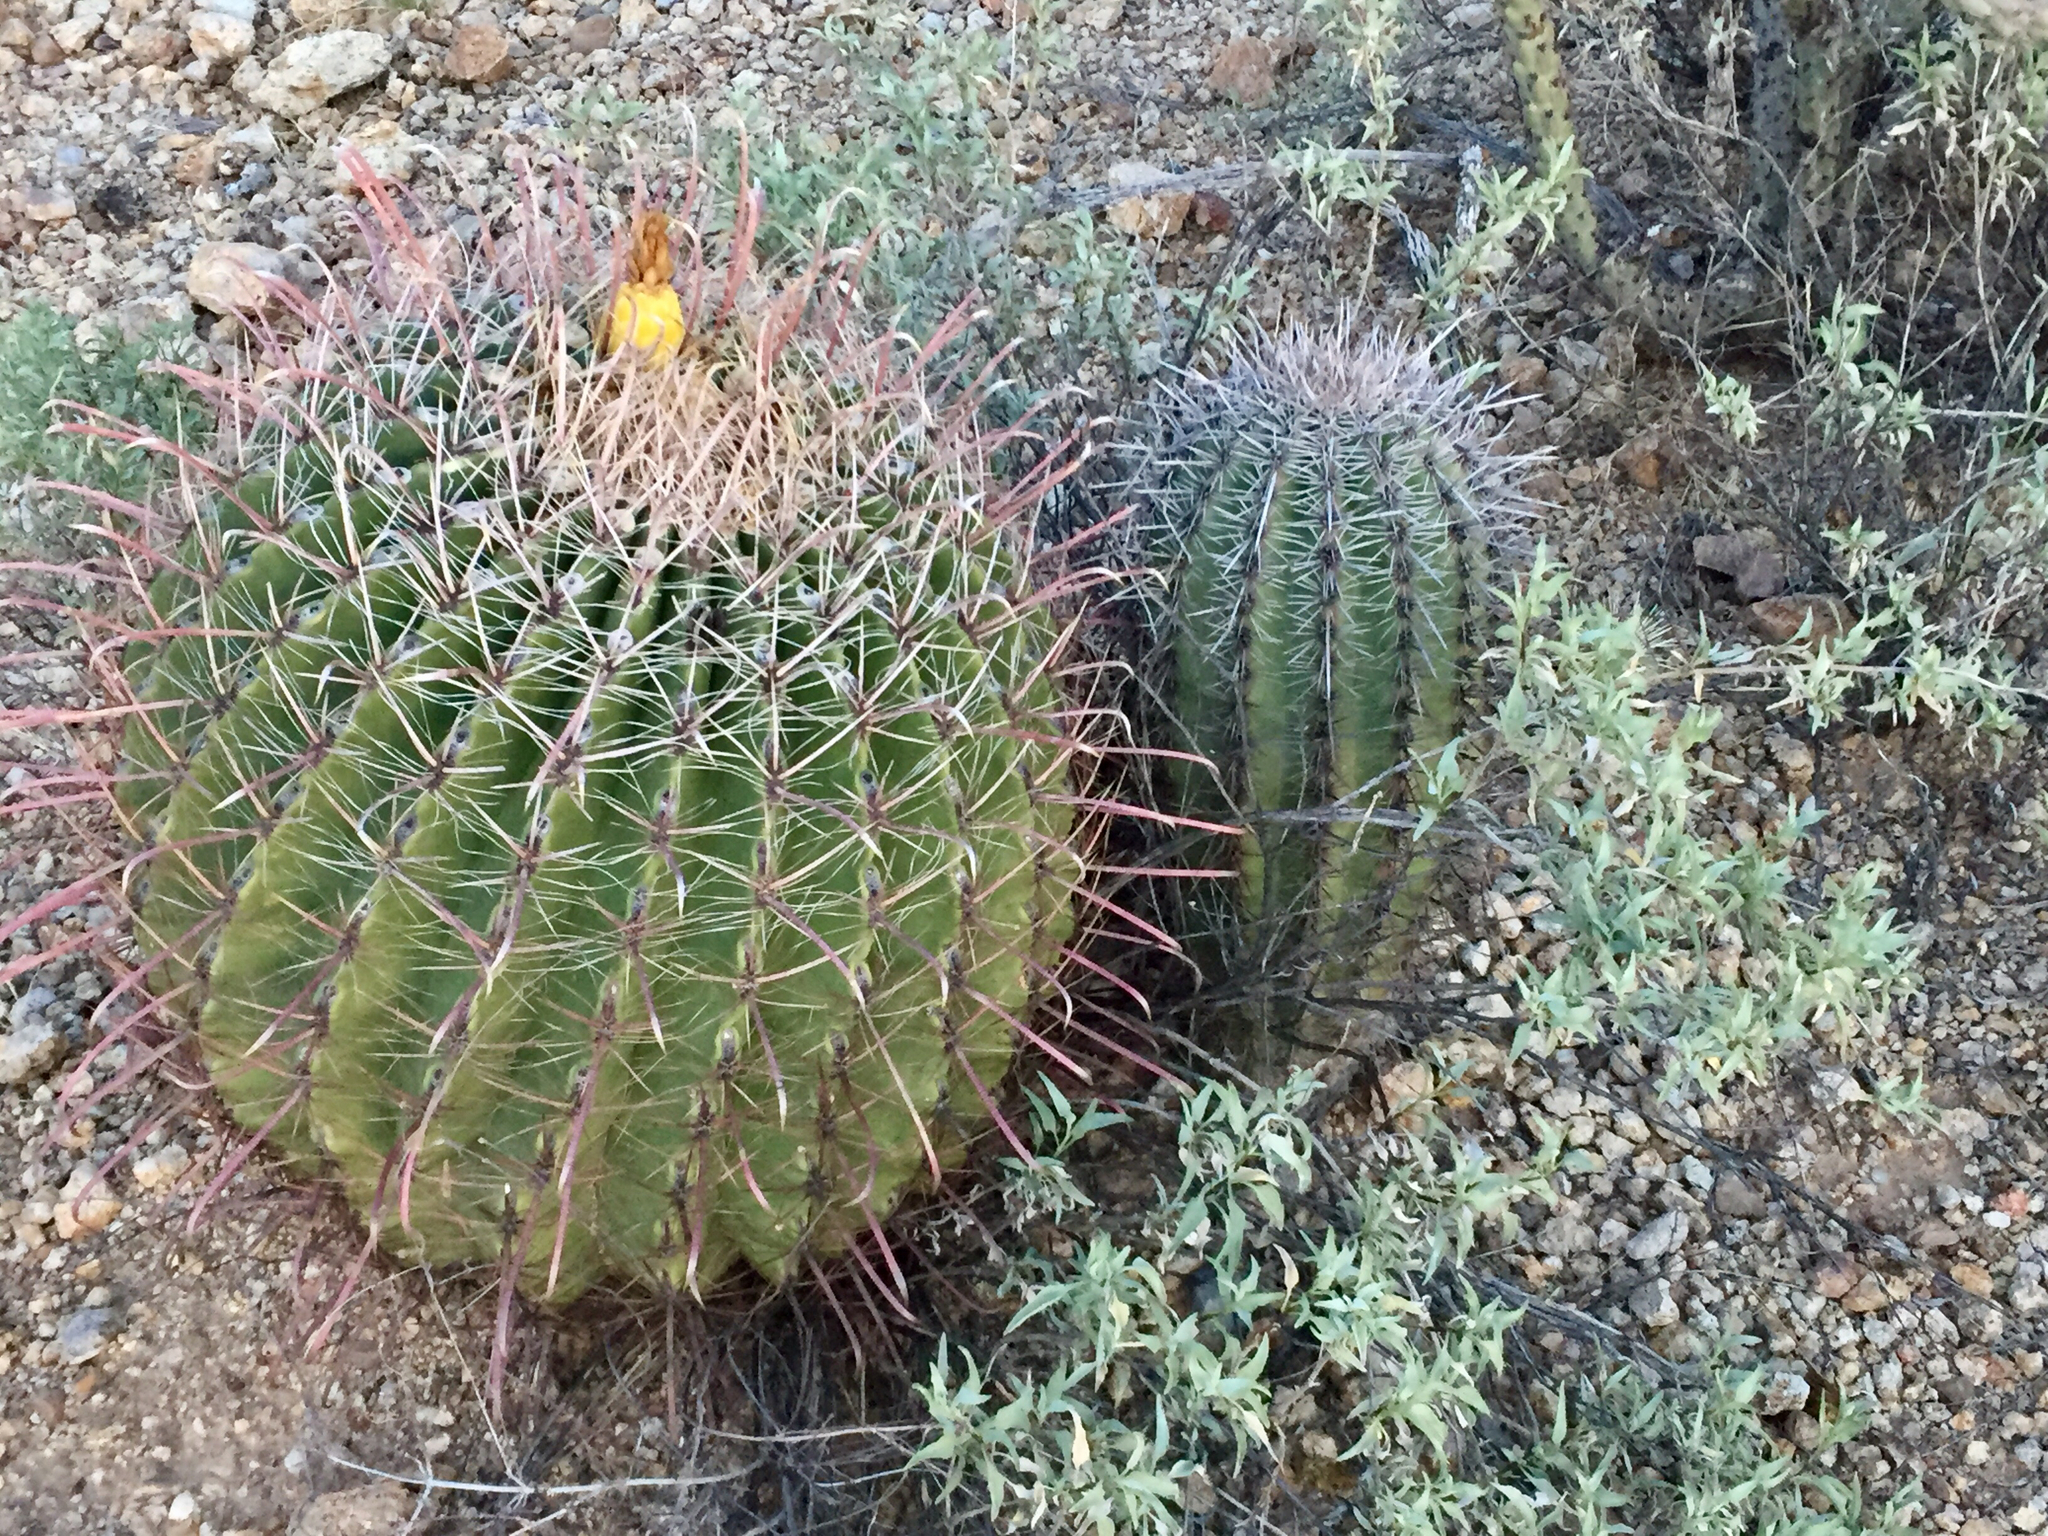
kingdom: Plantae
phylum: Tracheophyta
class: Magnoliopsida
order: Caryophyllales
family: Cactaceae
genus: Ferocactus
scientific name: Ferocactus wislizeni
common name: Candy barrel cactus
